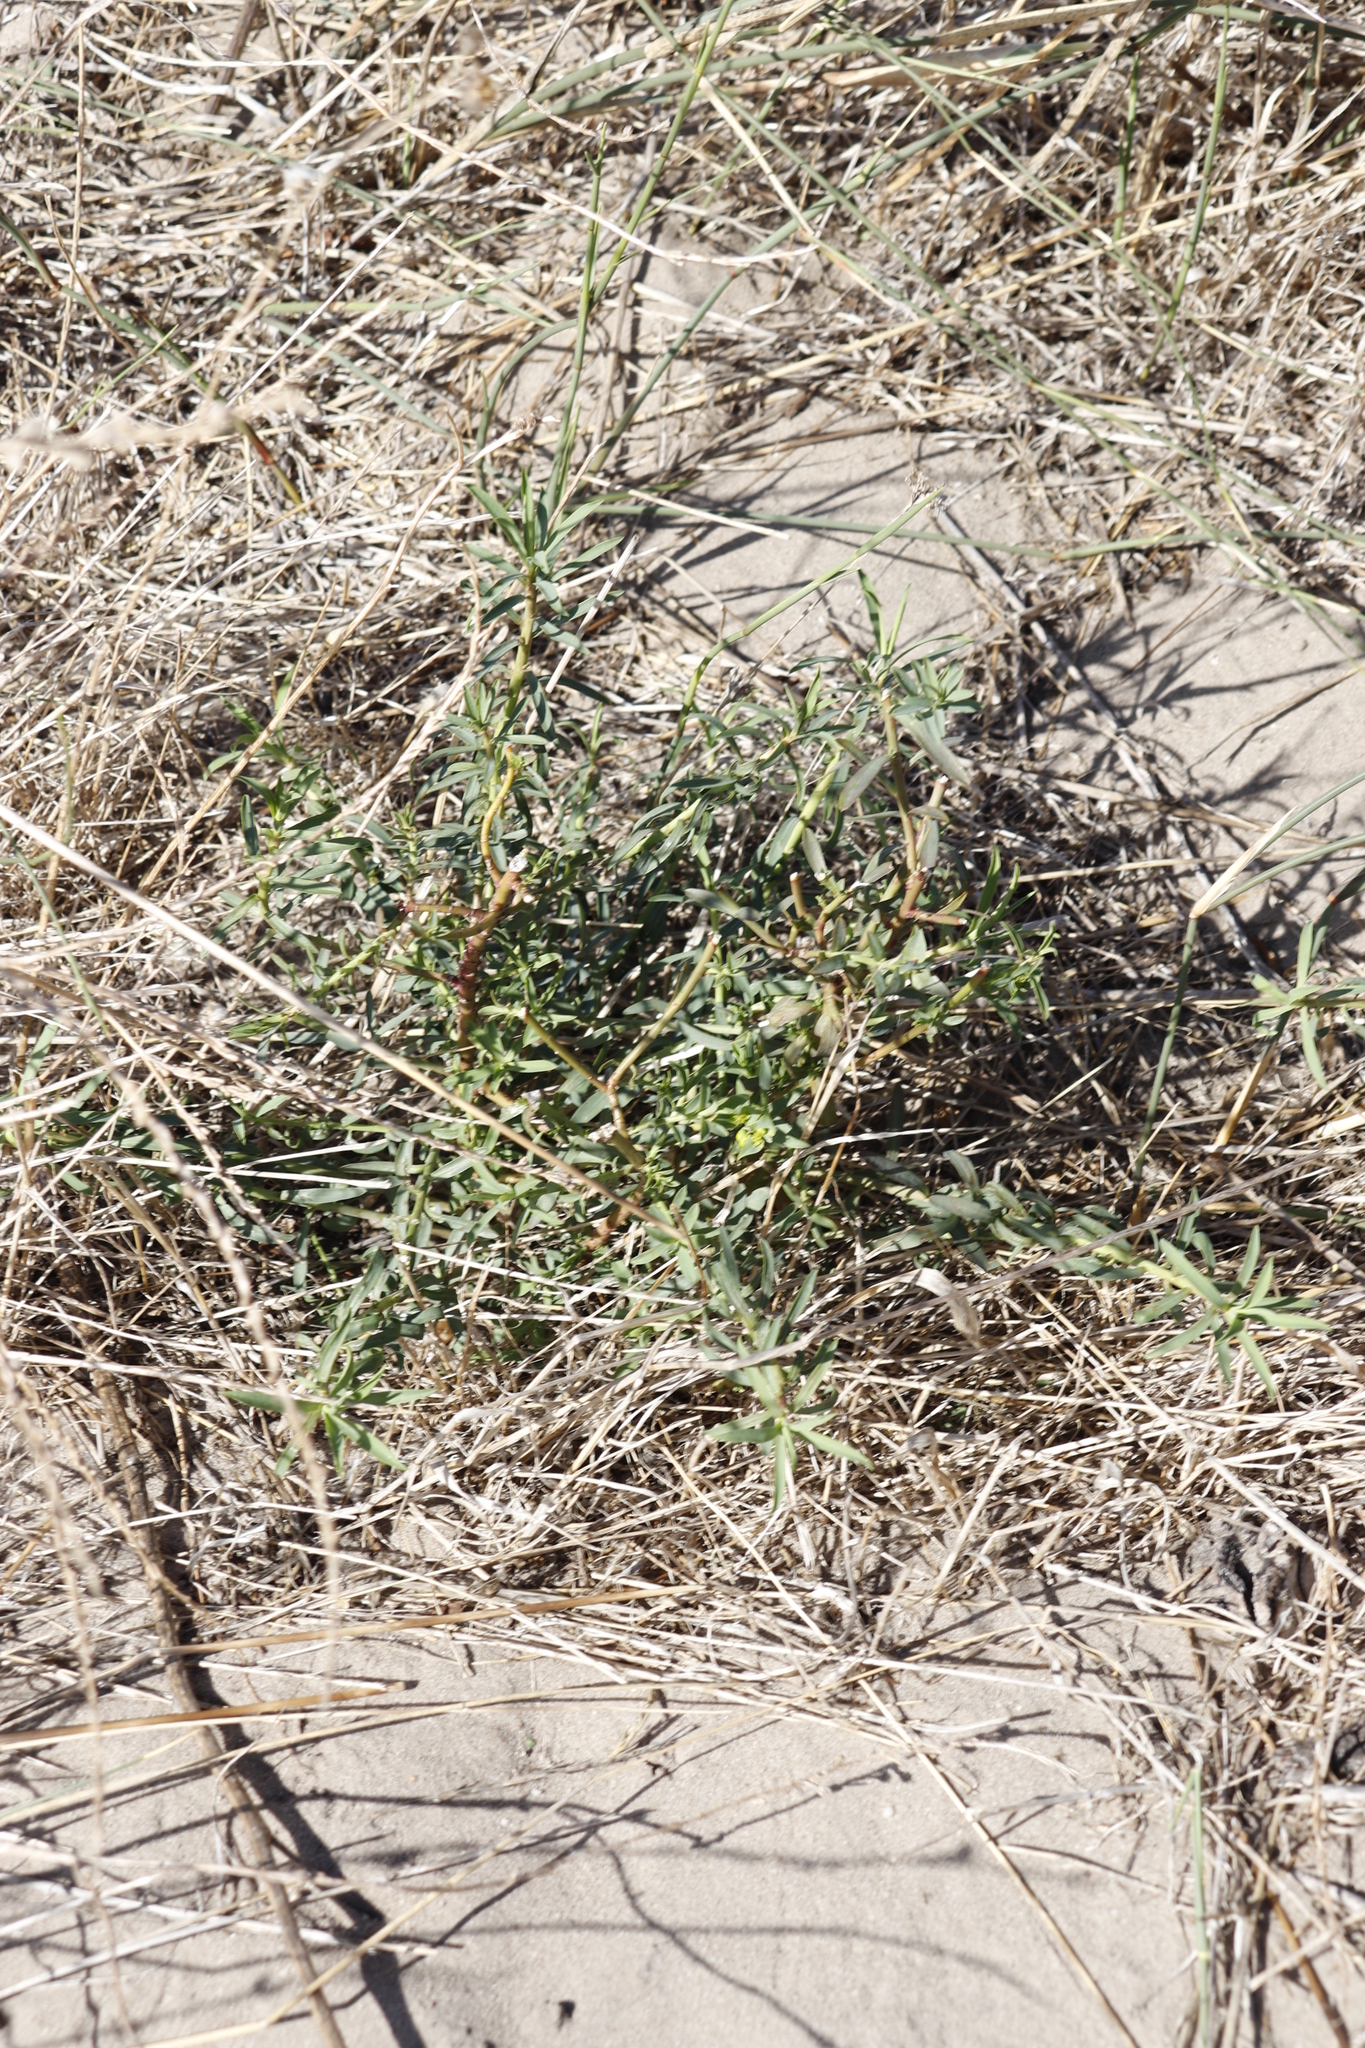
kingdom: Plantae
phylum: Tracheophyta
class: Magnoliopsida
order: Malpighiales
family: Euphorbiaceae
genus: Euphorbia
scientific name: Euphorbia terracina
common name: Geraldton carnation weed
